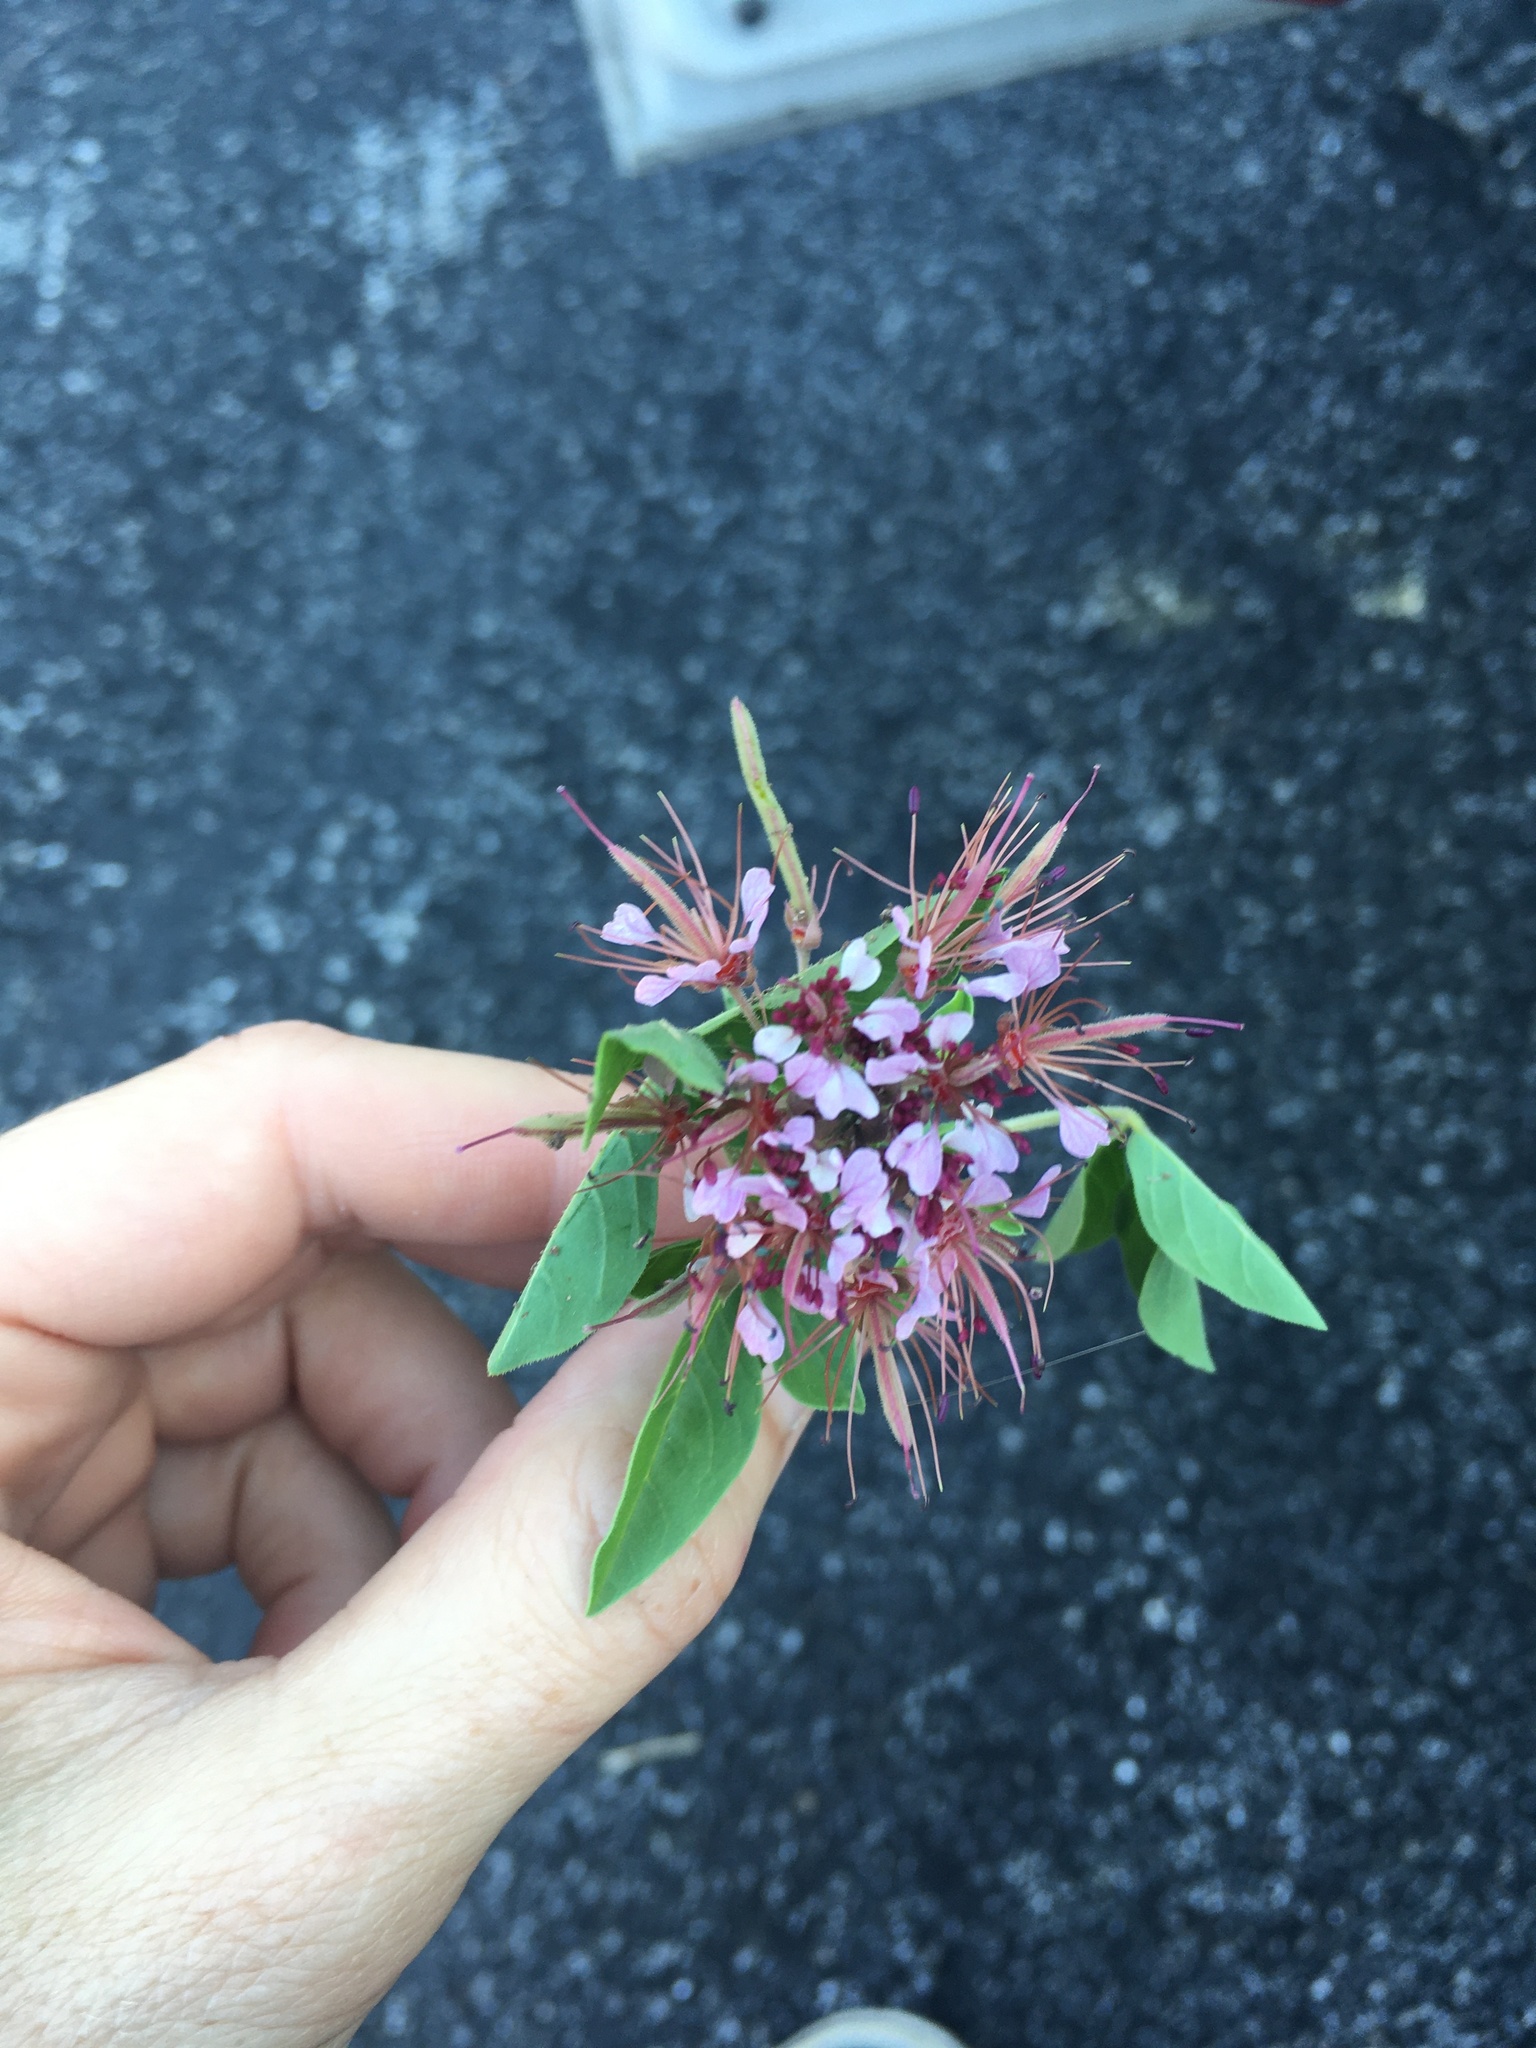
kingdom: Plantae
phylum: Tracheophyta
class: Magnoliopsida
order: Brassicales
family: Cleomaceae
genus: Polanisia
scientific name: Polanisia dodecandra
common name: Clammyweed
